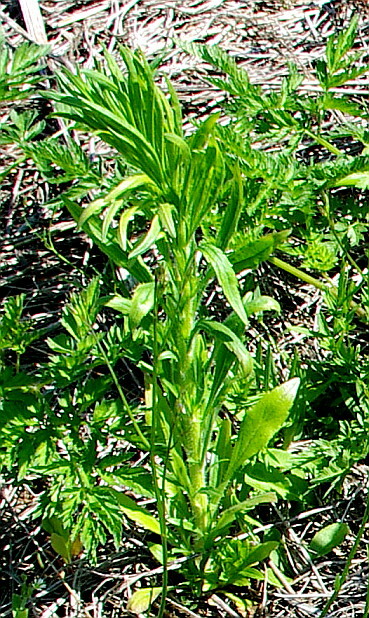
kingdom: Plantae
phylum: Tracheophyta
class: Magnoliopsida
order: Asterales
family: Asteraceae
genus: Erigeron
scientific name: Erigeron canadensis
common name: Canadian fleabane
